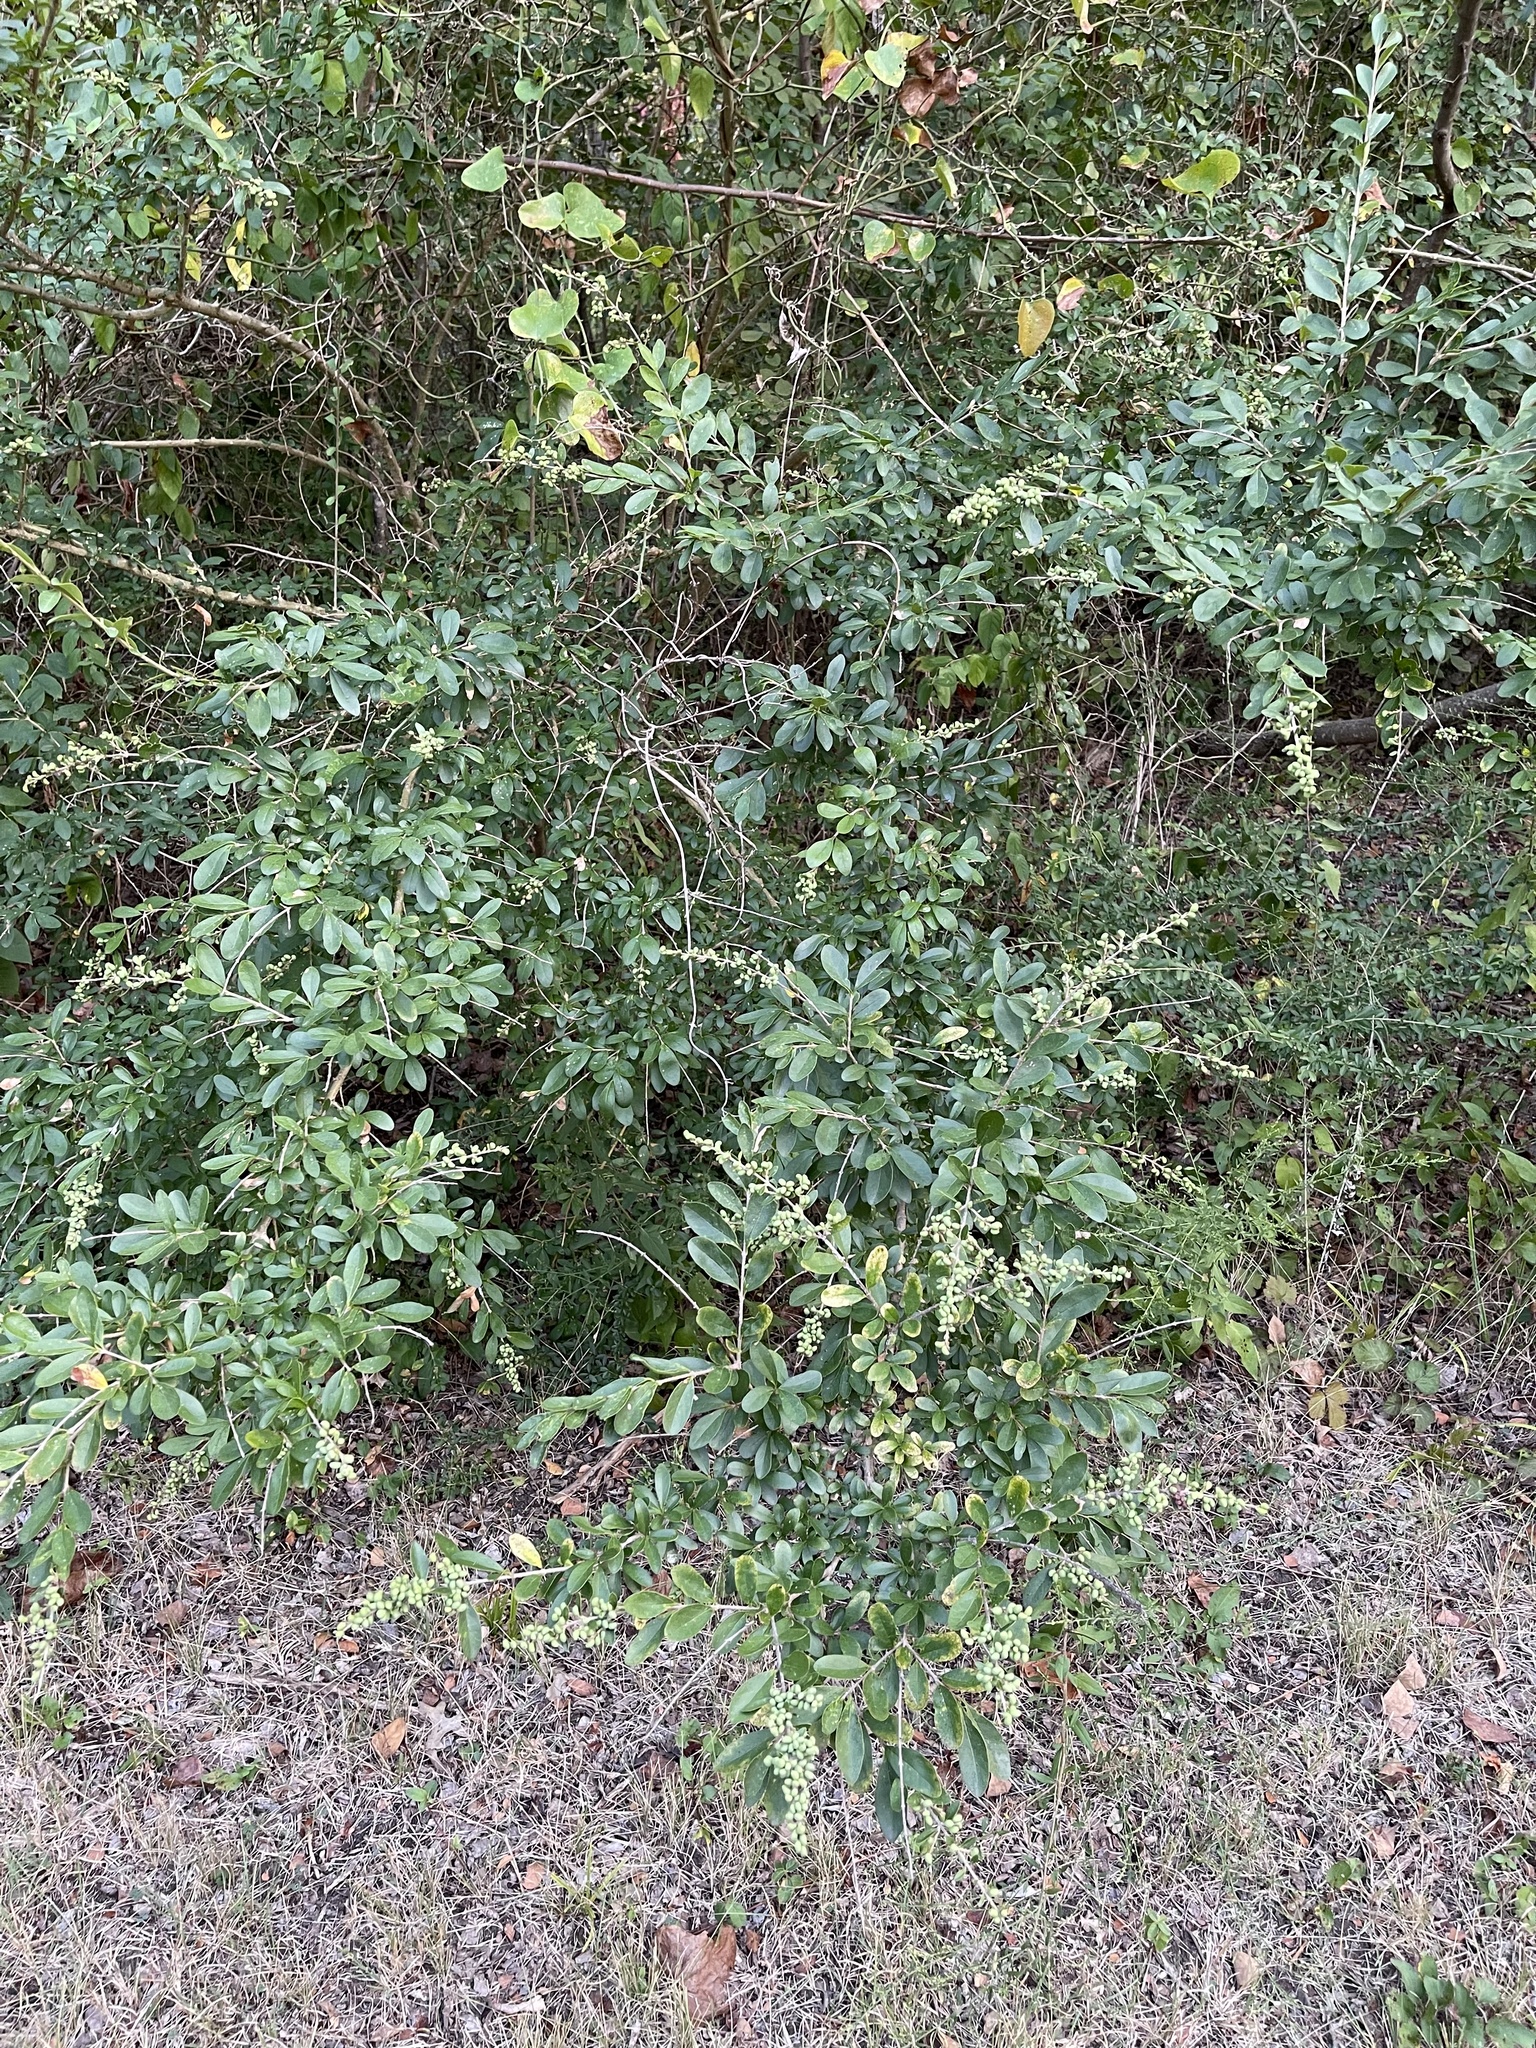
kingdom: Plantae
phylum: Tracheophyta
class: Magnoliopsida
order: Lamiales
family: Oleaceae
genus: Ligustrum
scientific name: Ligustrum quihoui
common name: Waxyleaf privet
